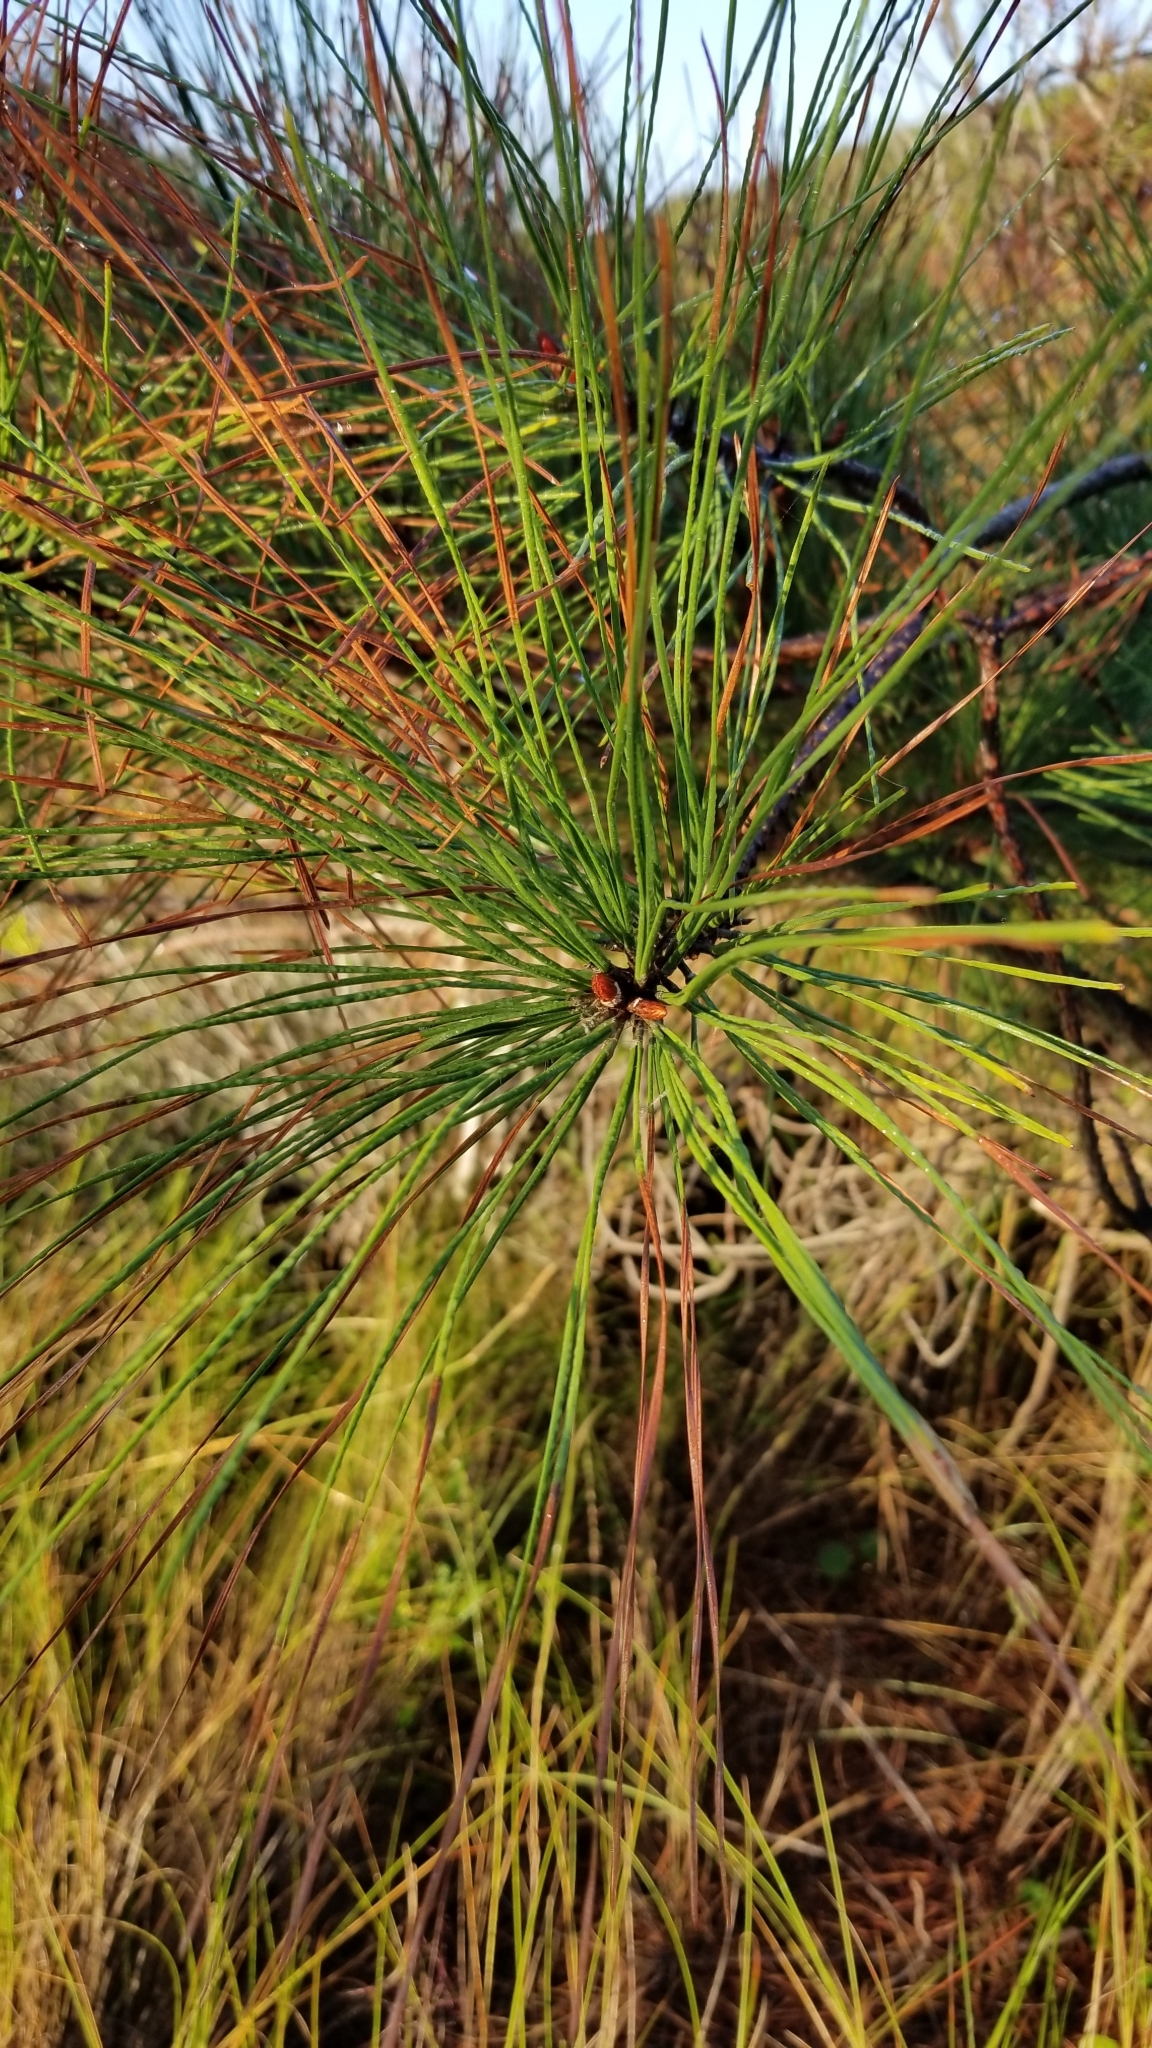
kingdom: Plantae
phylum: Tracheophyta
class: Pinopsida
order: Pinales
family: Pinaceae
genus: Pinus
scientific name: Pinus taeda
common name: Loblolly pine
